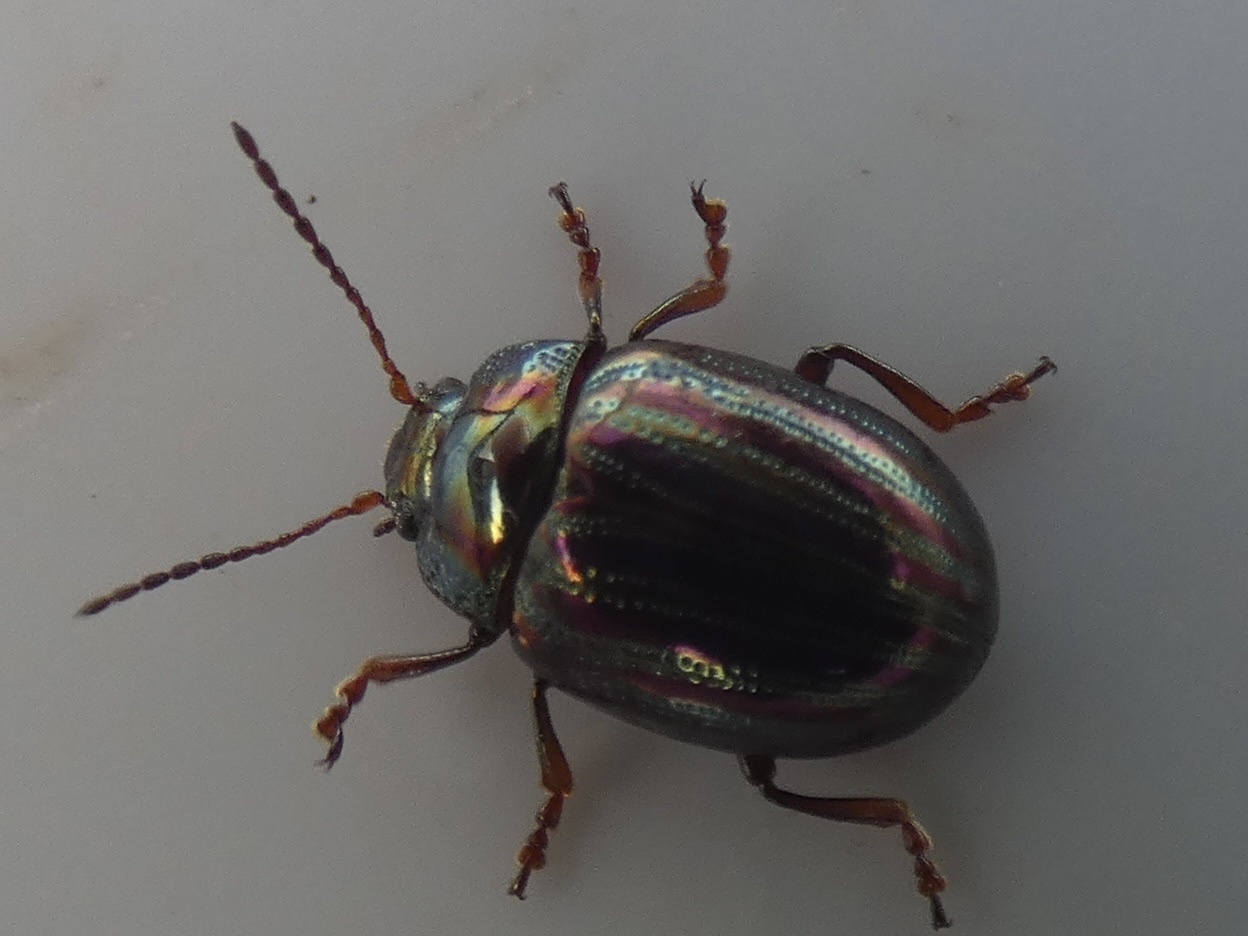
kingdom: Animalia
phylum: Arthropoda
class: Insecta
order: Coleoptera
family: Chrysomelidae
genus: Chrysolina
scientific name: Chrysolina americana
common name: Rosemary beetle
